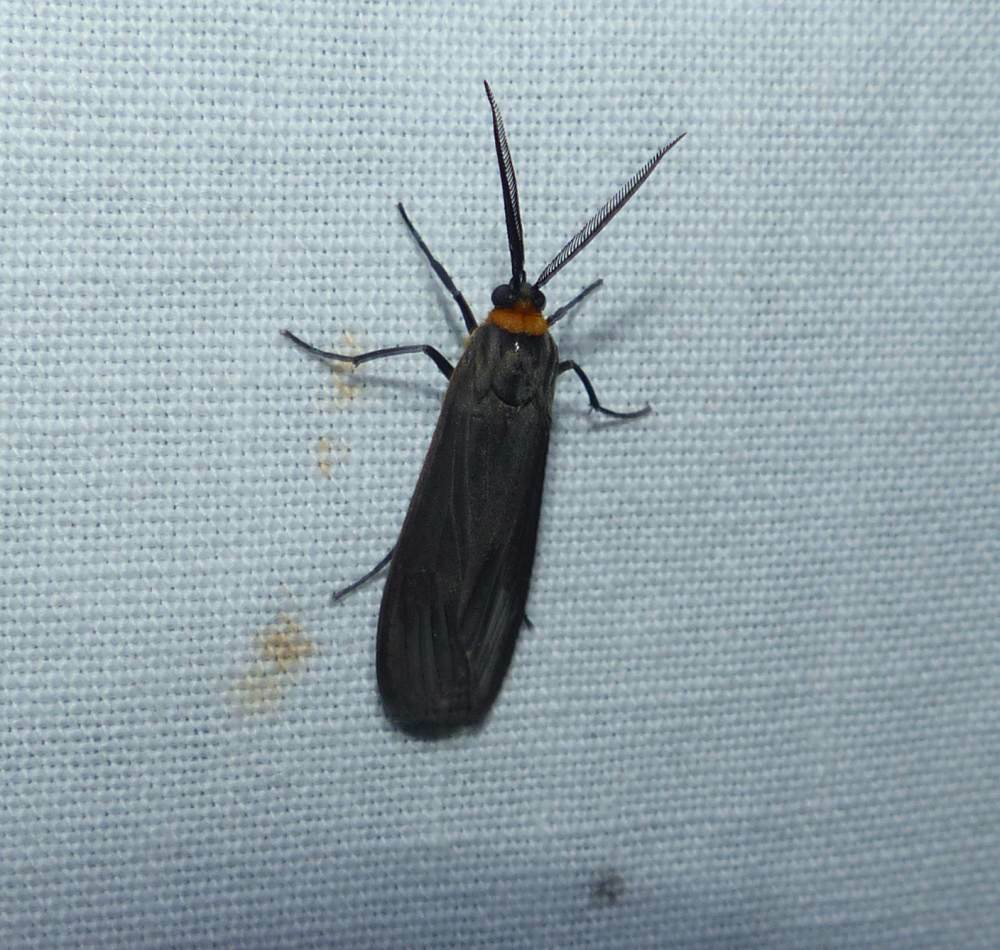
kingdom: Animalia
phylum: Arthropoda
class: Insecta
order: Lepidoptera
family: Erebidae
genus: Cisseps
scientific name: Cisseps fulvicollis
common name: Yellow-collared scape moth
